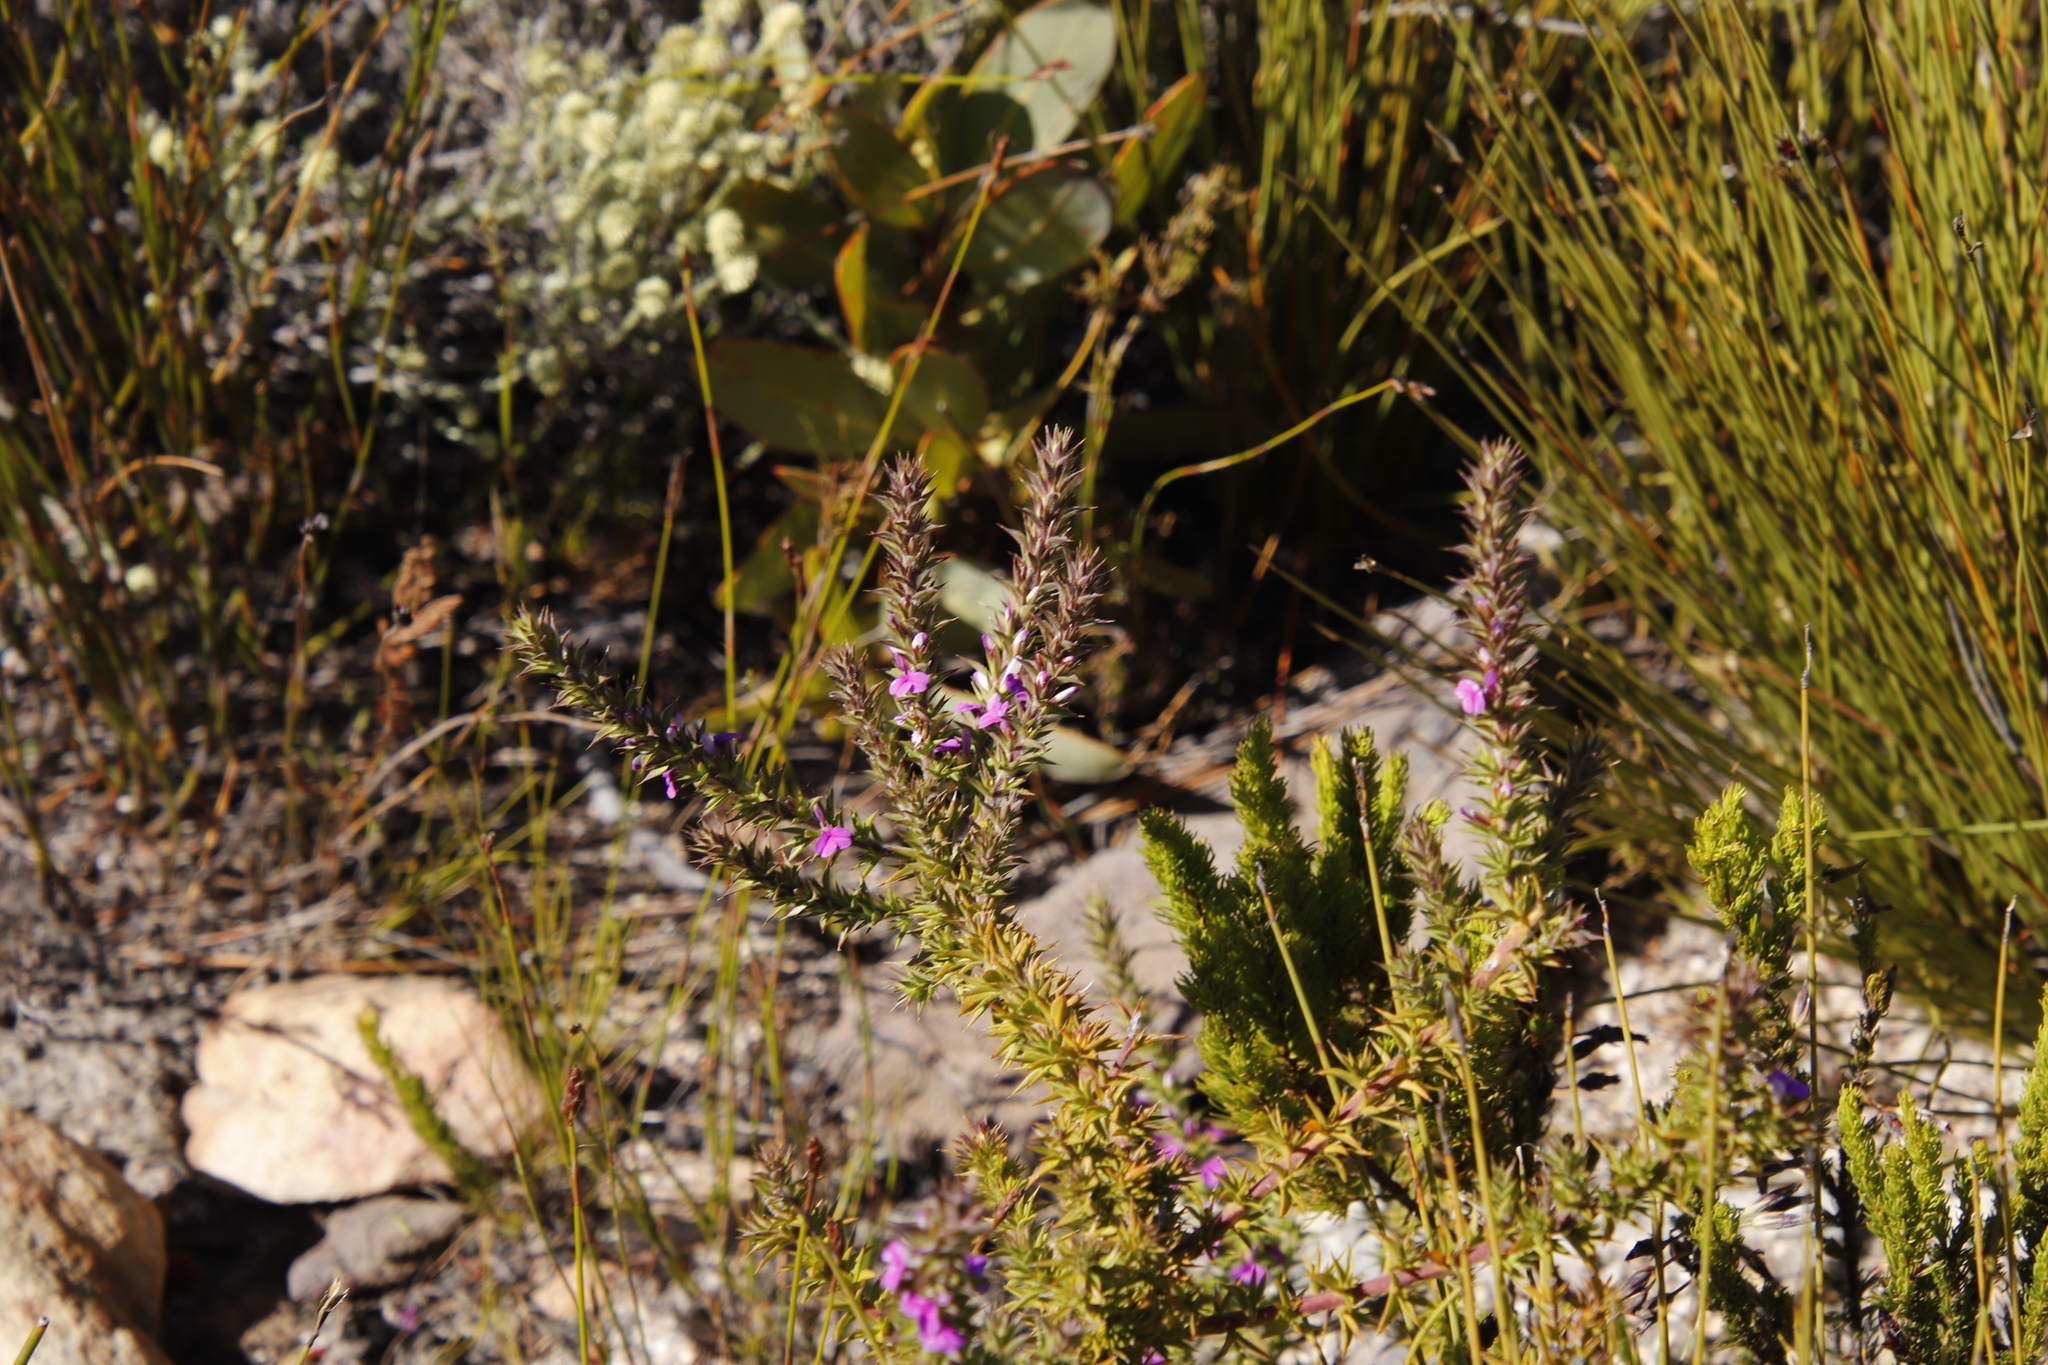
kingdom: Plantae
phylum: Tracheophyta
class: Magnoliopsida
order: Fabales
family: Polygalaceae
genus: Muraltia
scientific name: Muraltia heisteria
